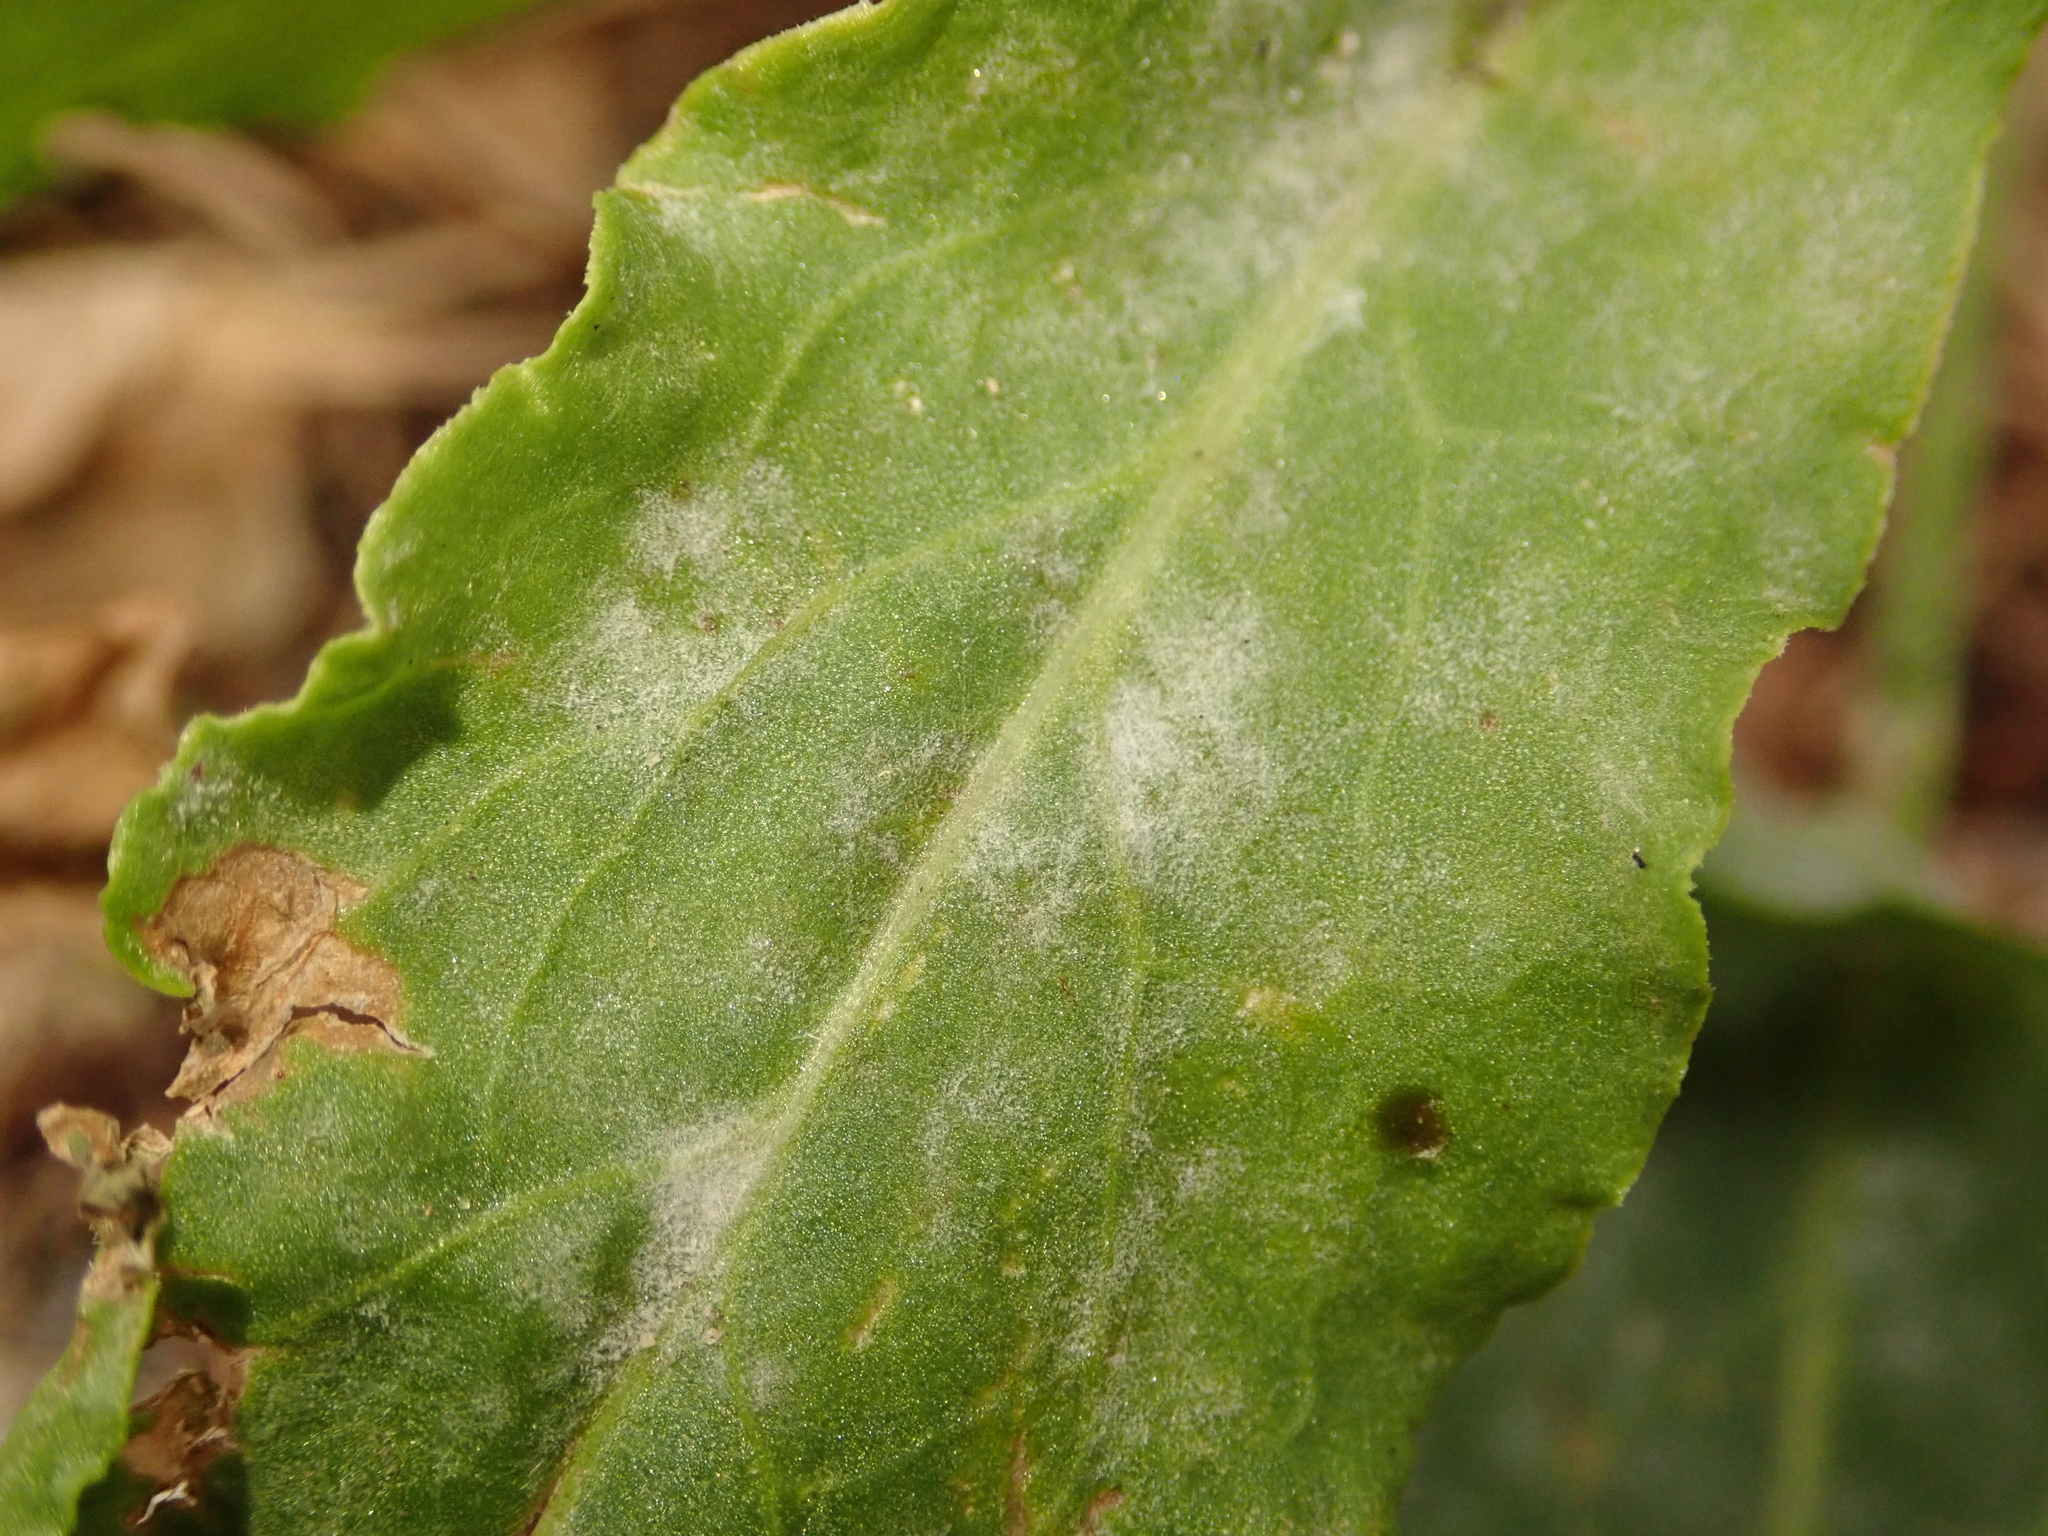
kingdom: Fungi
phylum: Ascomycota
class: Leotiomycetes
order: Helotiales
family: Erysiphaceae
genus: Erysiphe
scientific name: Erysiphe polygoni
